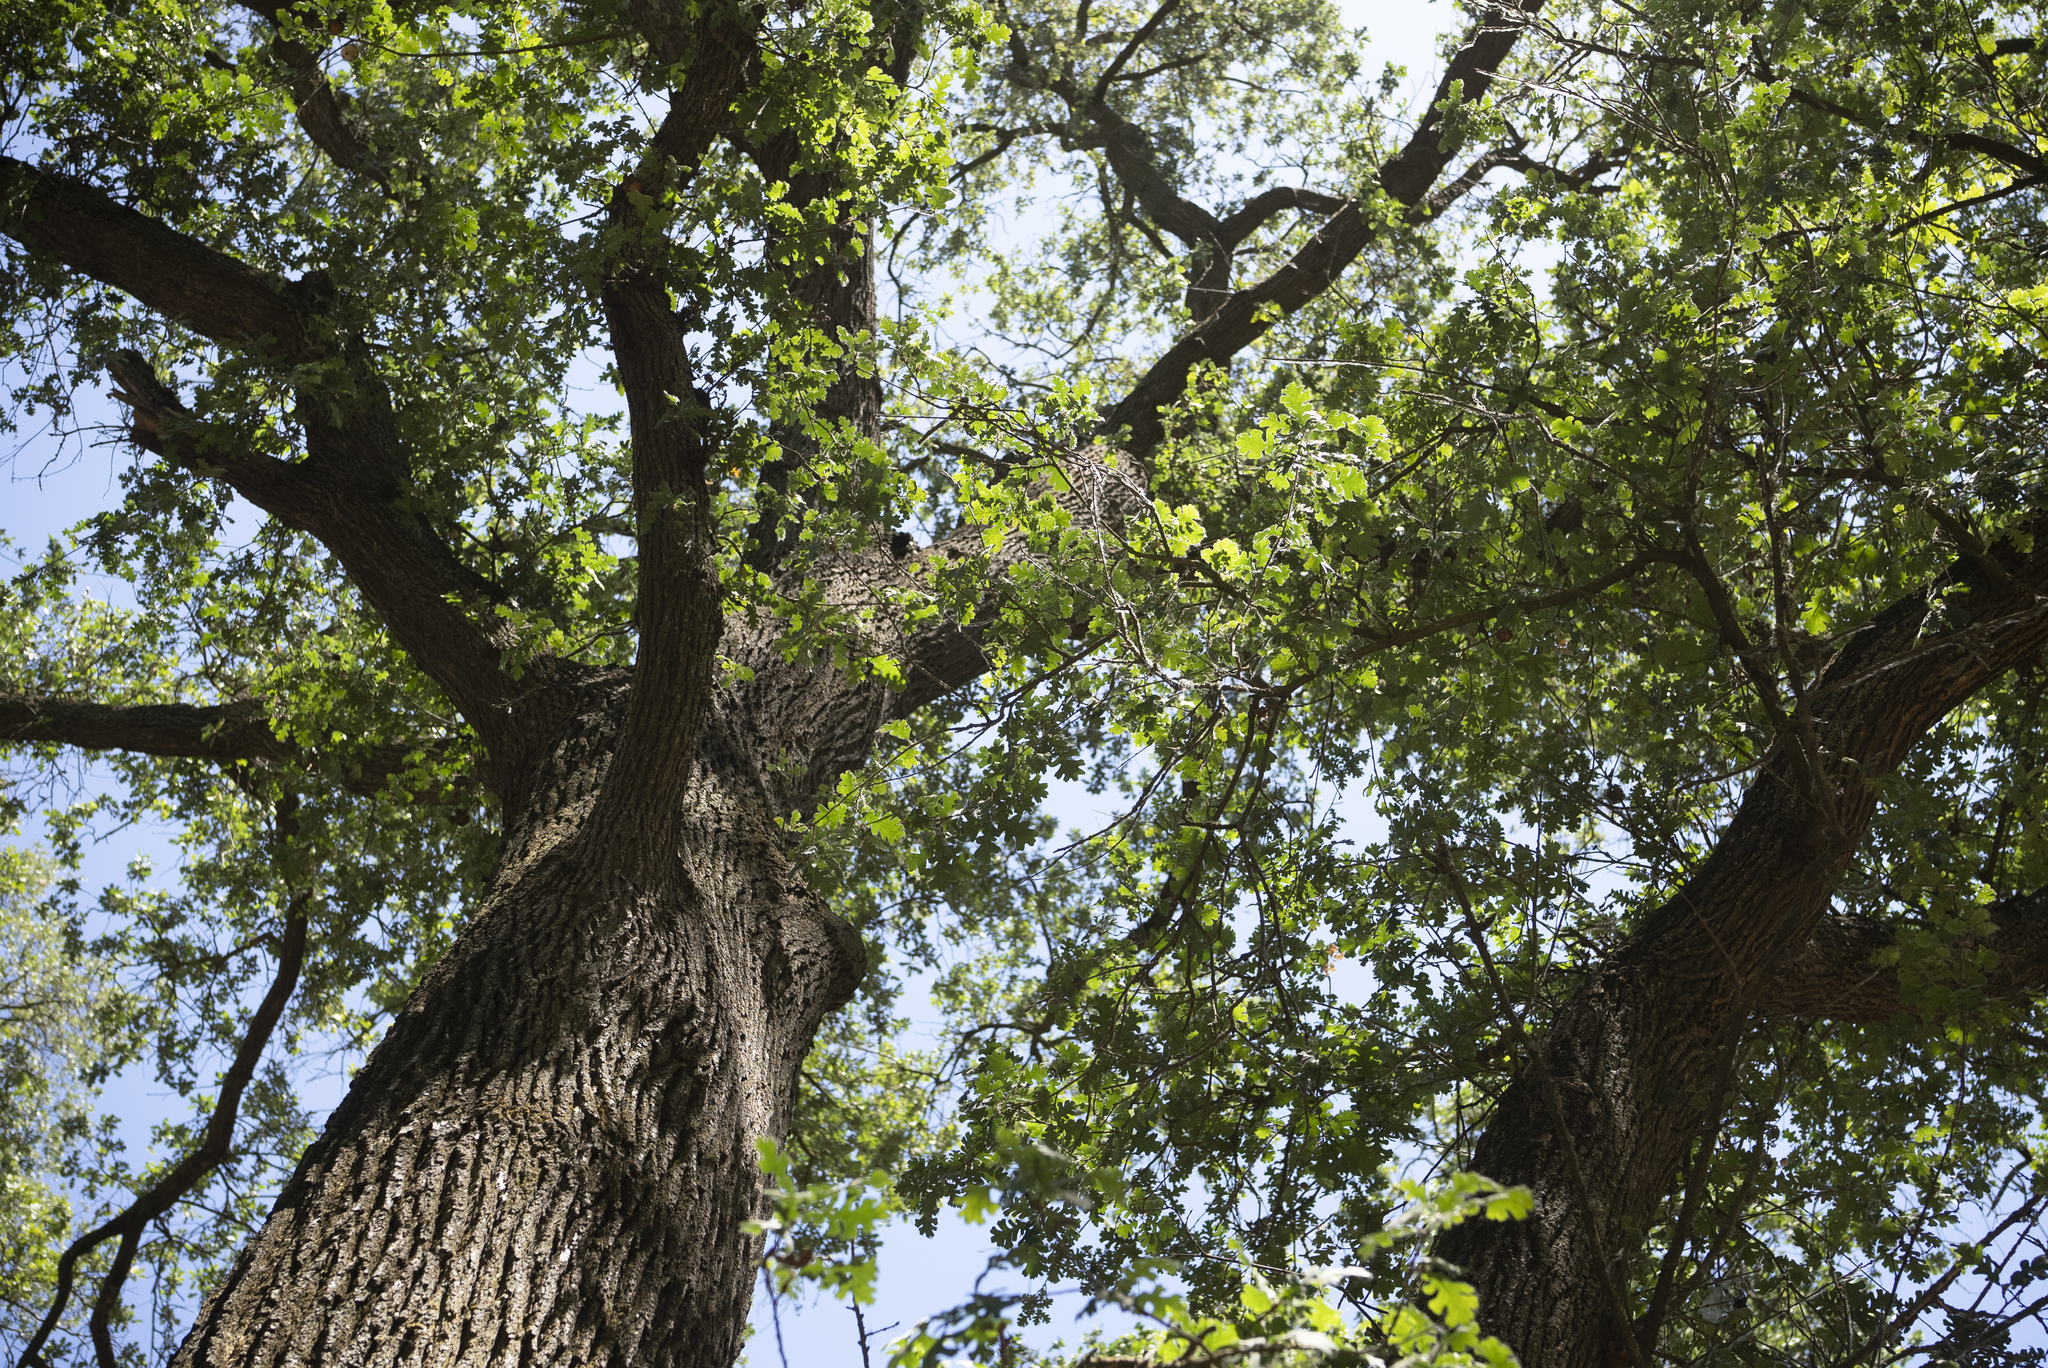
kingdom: Plantae
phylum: Tracheophyta
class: Magnoliopsida
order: Fagales
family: Fagaceae
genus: Quercus
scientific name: Quercus lobata
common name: Valley oak
